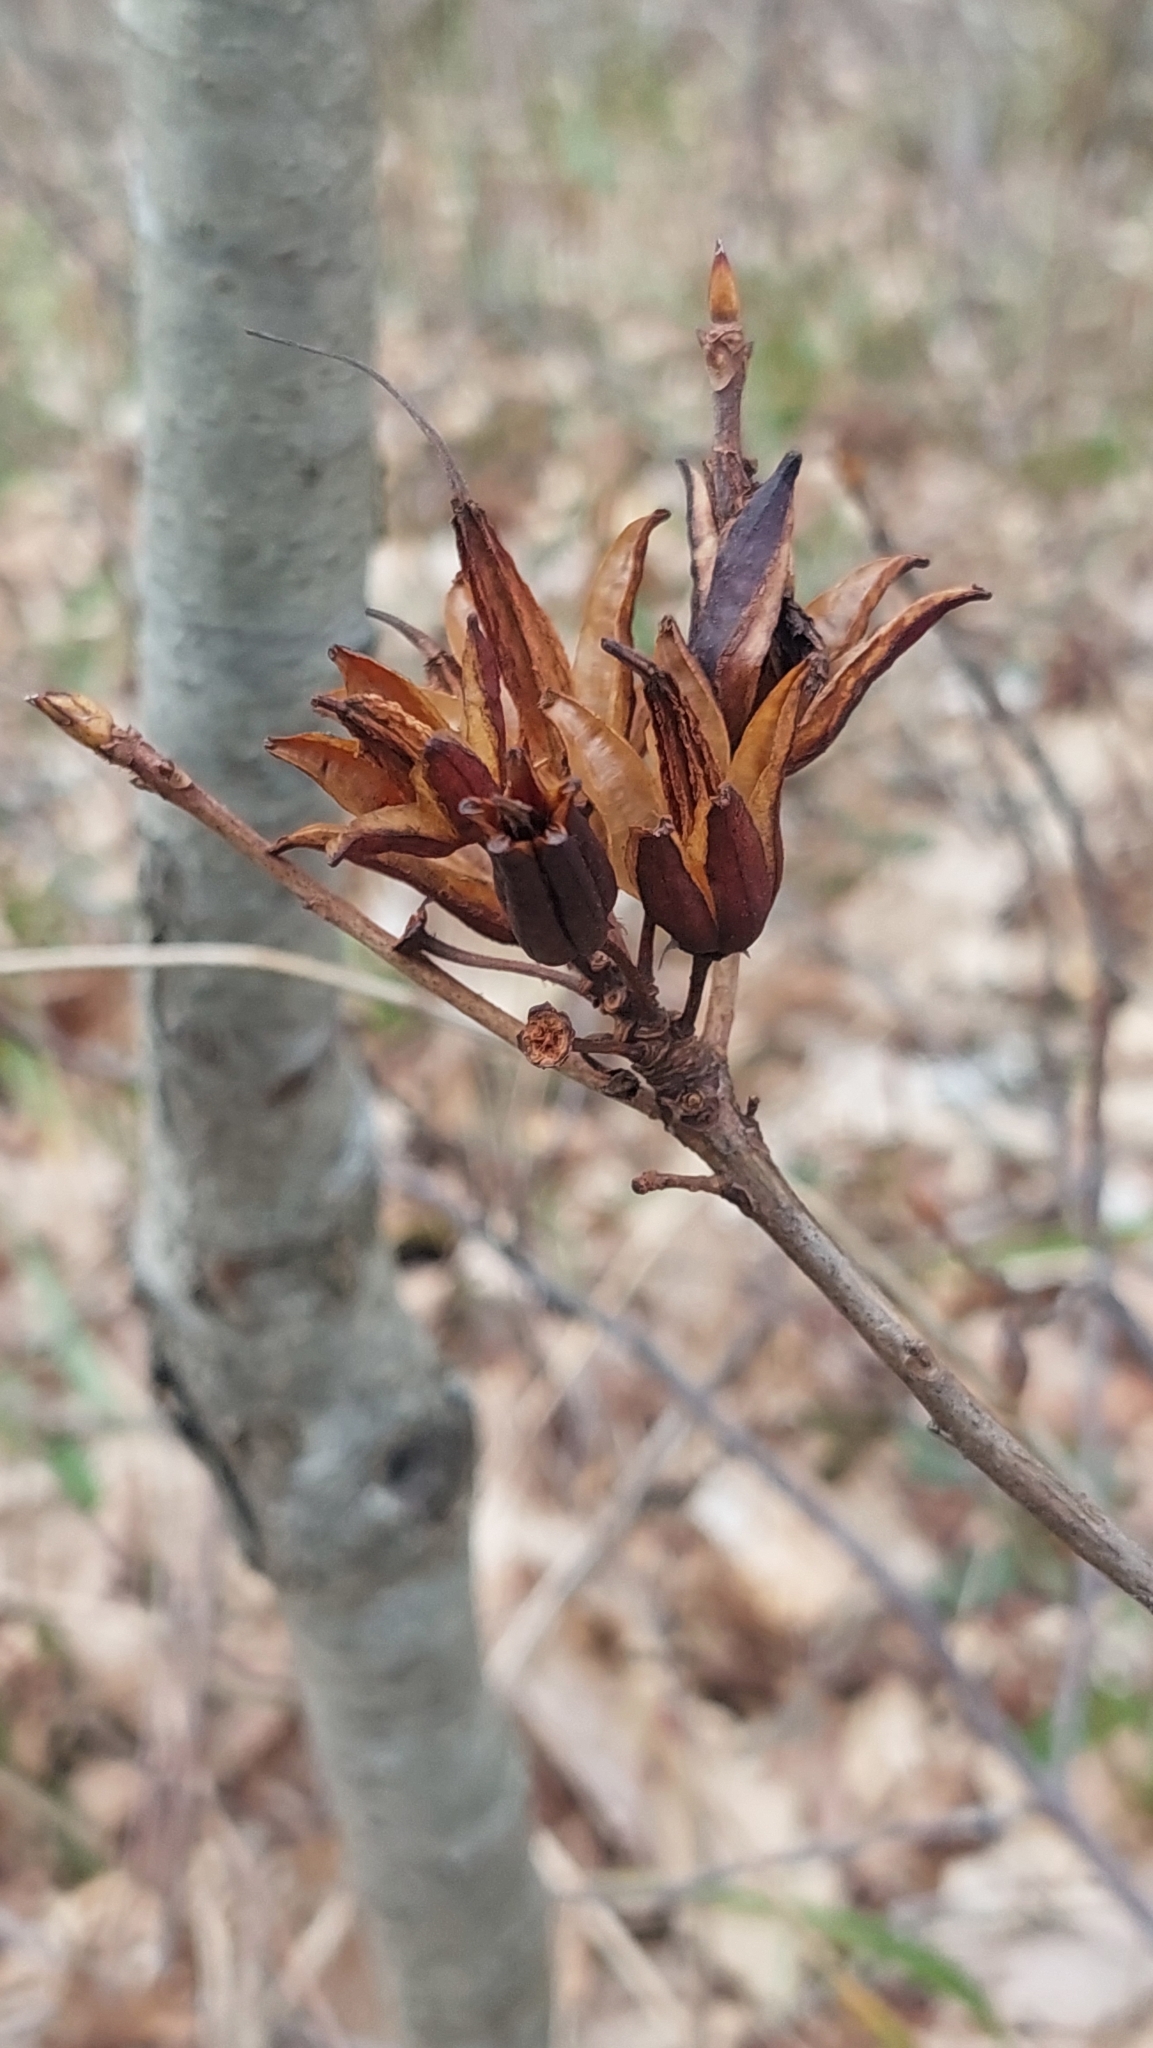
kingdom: Plantae
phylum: Tracheophyta
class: Magnoliopsida
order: Ericales
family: Ericaceae
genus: Rhododendron
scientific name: Rhododendron luteum
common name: Yellow azalea
